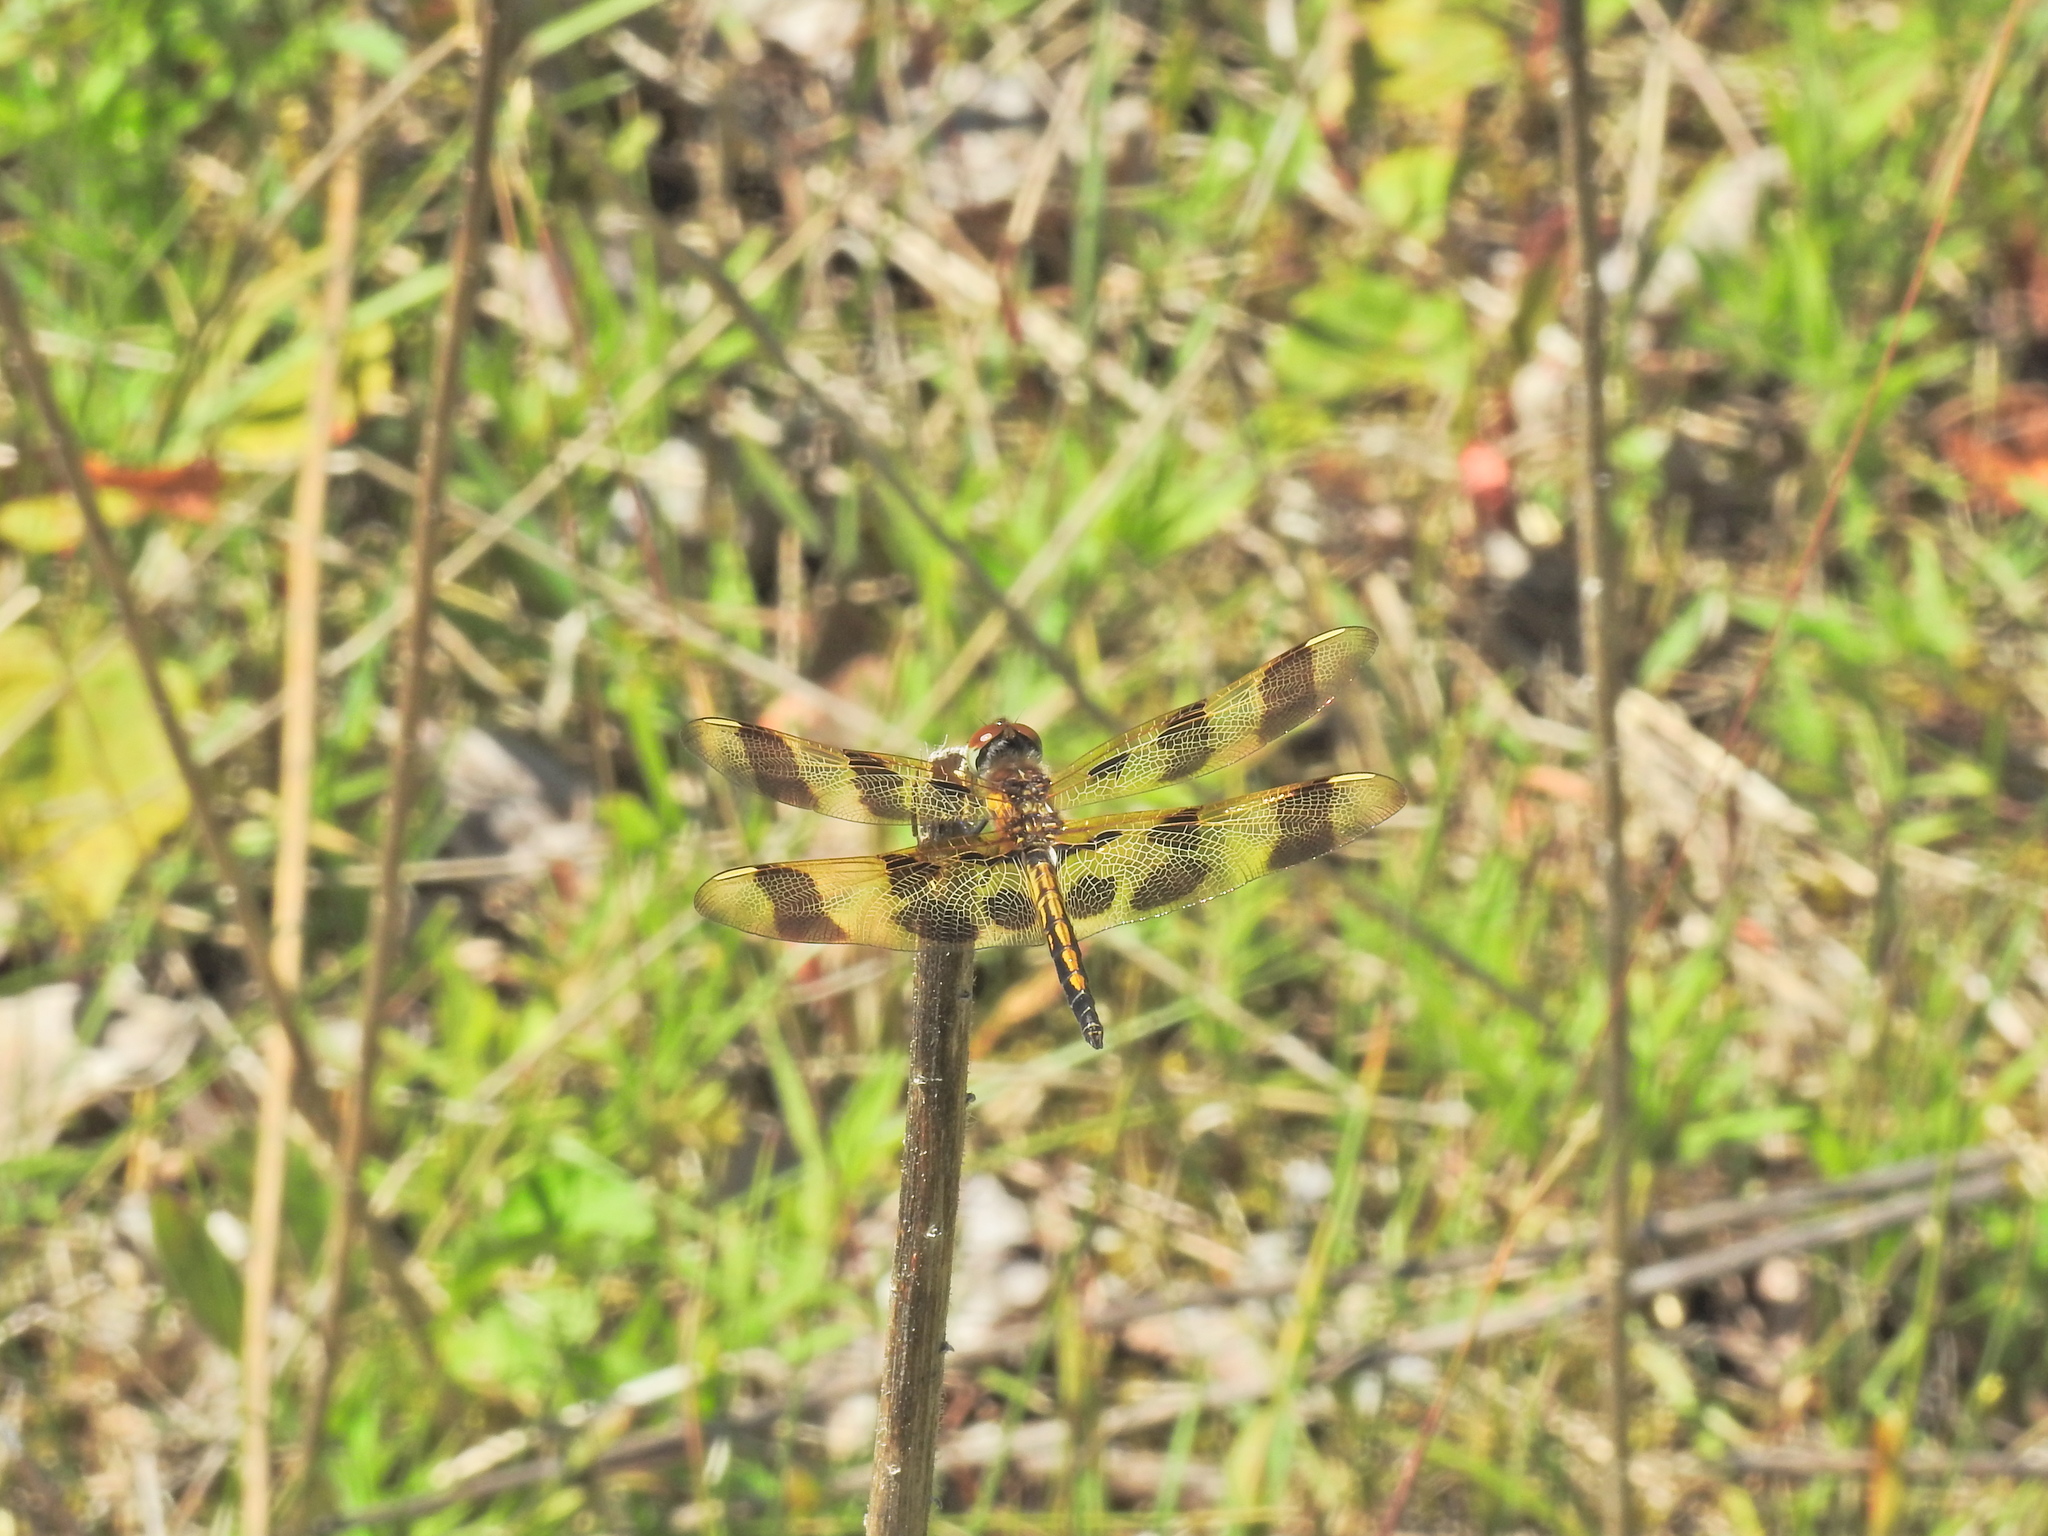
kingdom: Animalia
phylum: Arthropoda
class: Insecta
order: Odonata
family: Libellulidae
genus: Celithemis
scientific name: Celithemis eponina
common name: Halloween pennant
